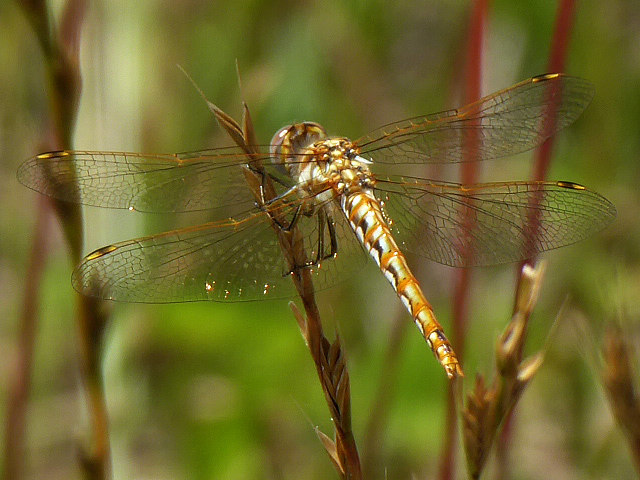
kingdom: Animalia
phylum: Arthropoda
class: Insecta
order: Odonata
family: Libellulidae
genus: Sympetrum
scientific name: Sympetrum corruptum
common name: Variegated meadowhawk
